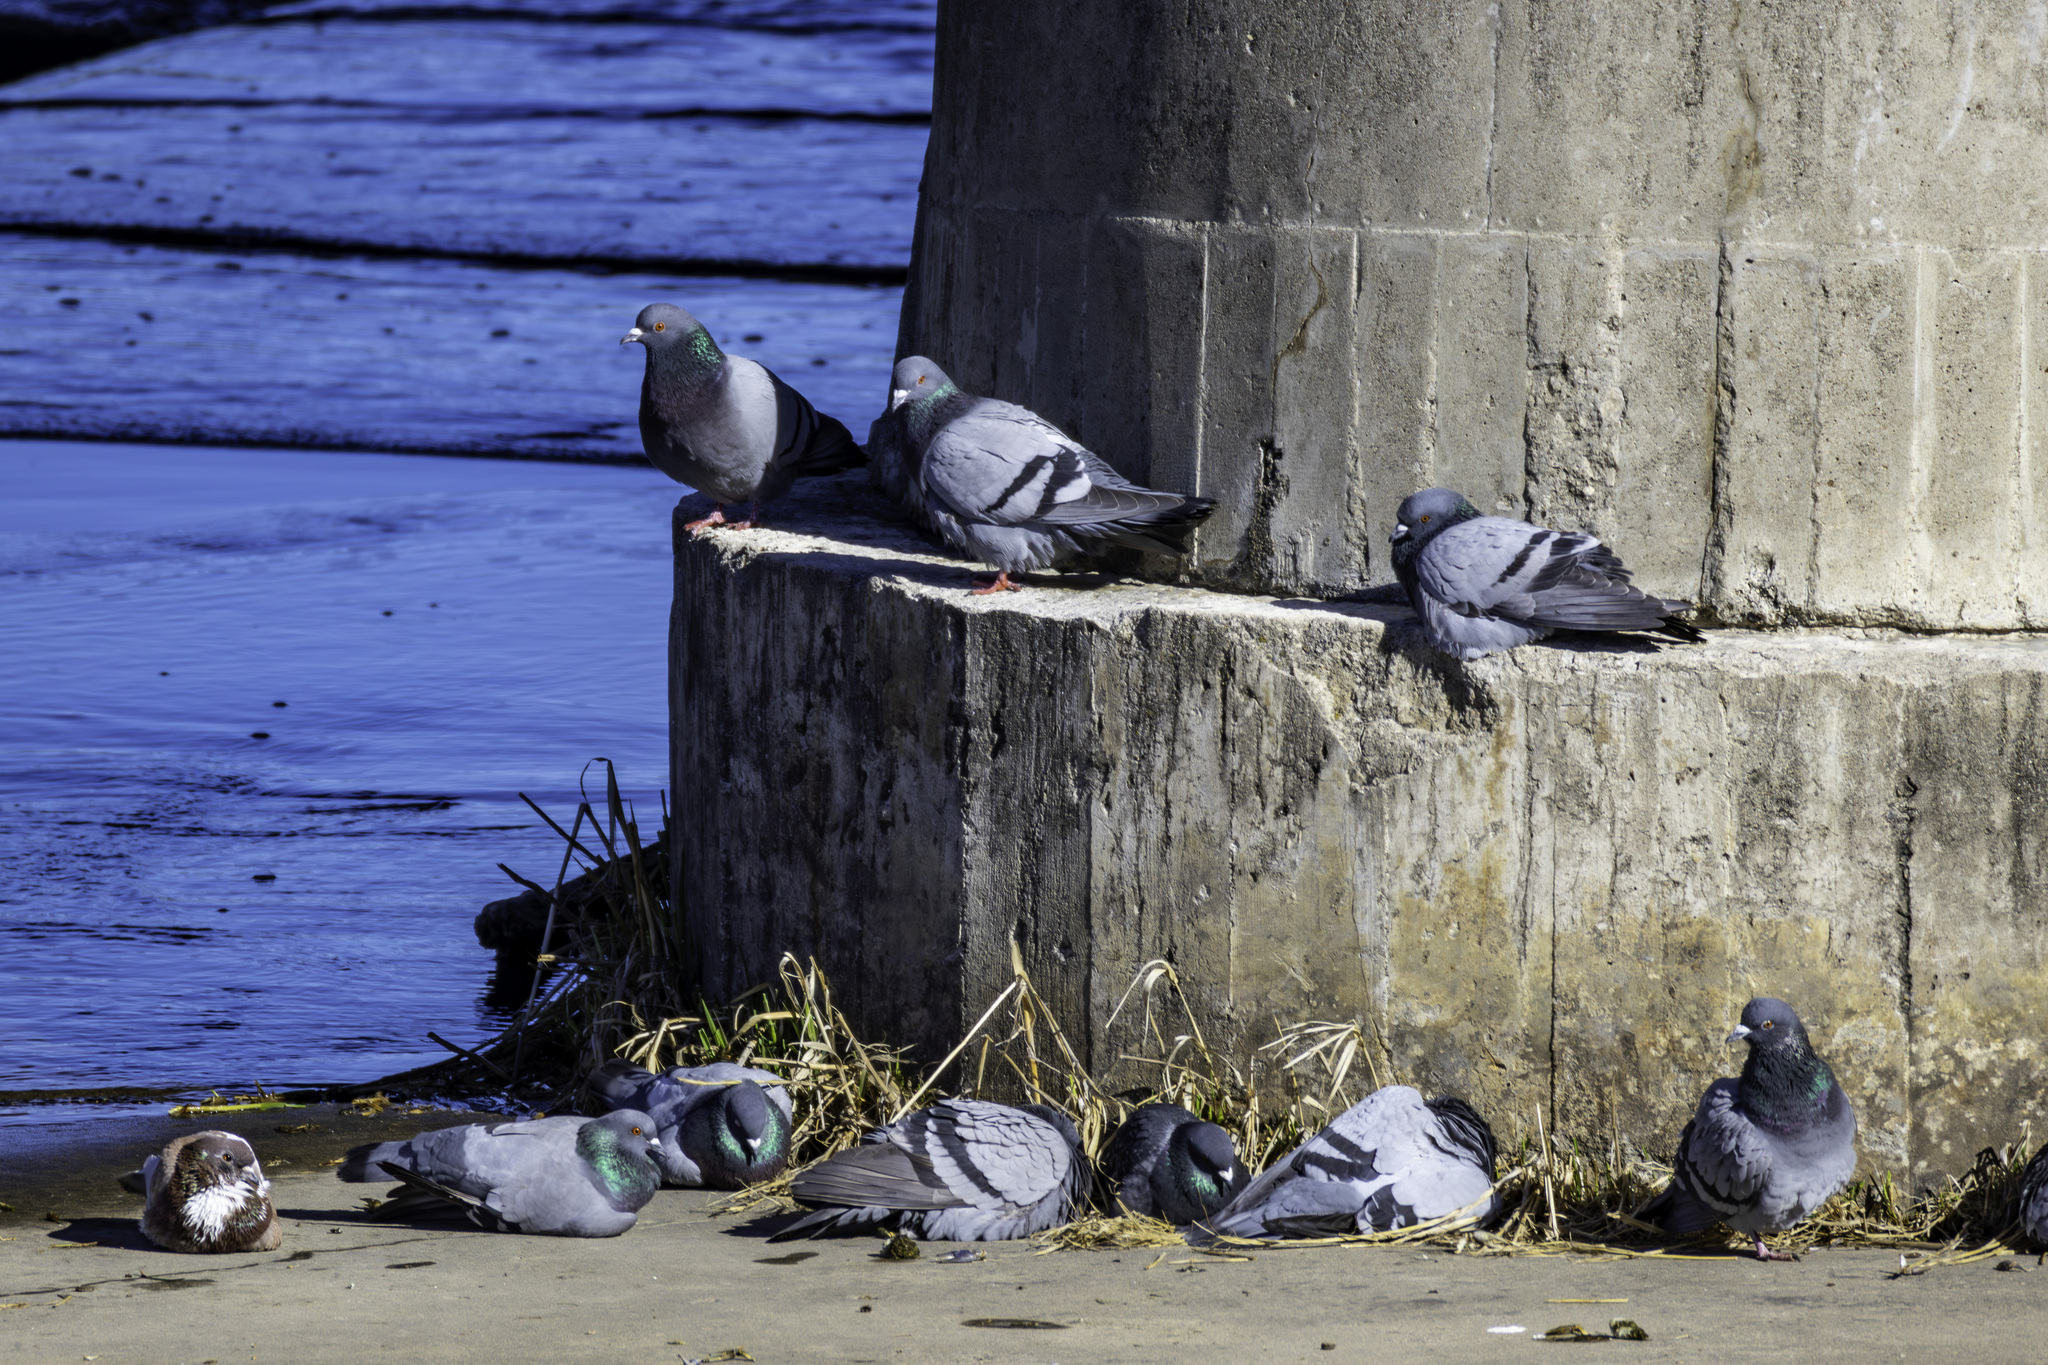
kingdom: Animalia
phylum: Chordata
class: Aves
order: Columbiformes
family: Columbidae
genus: Columba
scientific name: Columba livia
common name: Rock pigeon
